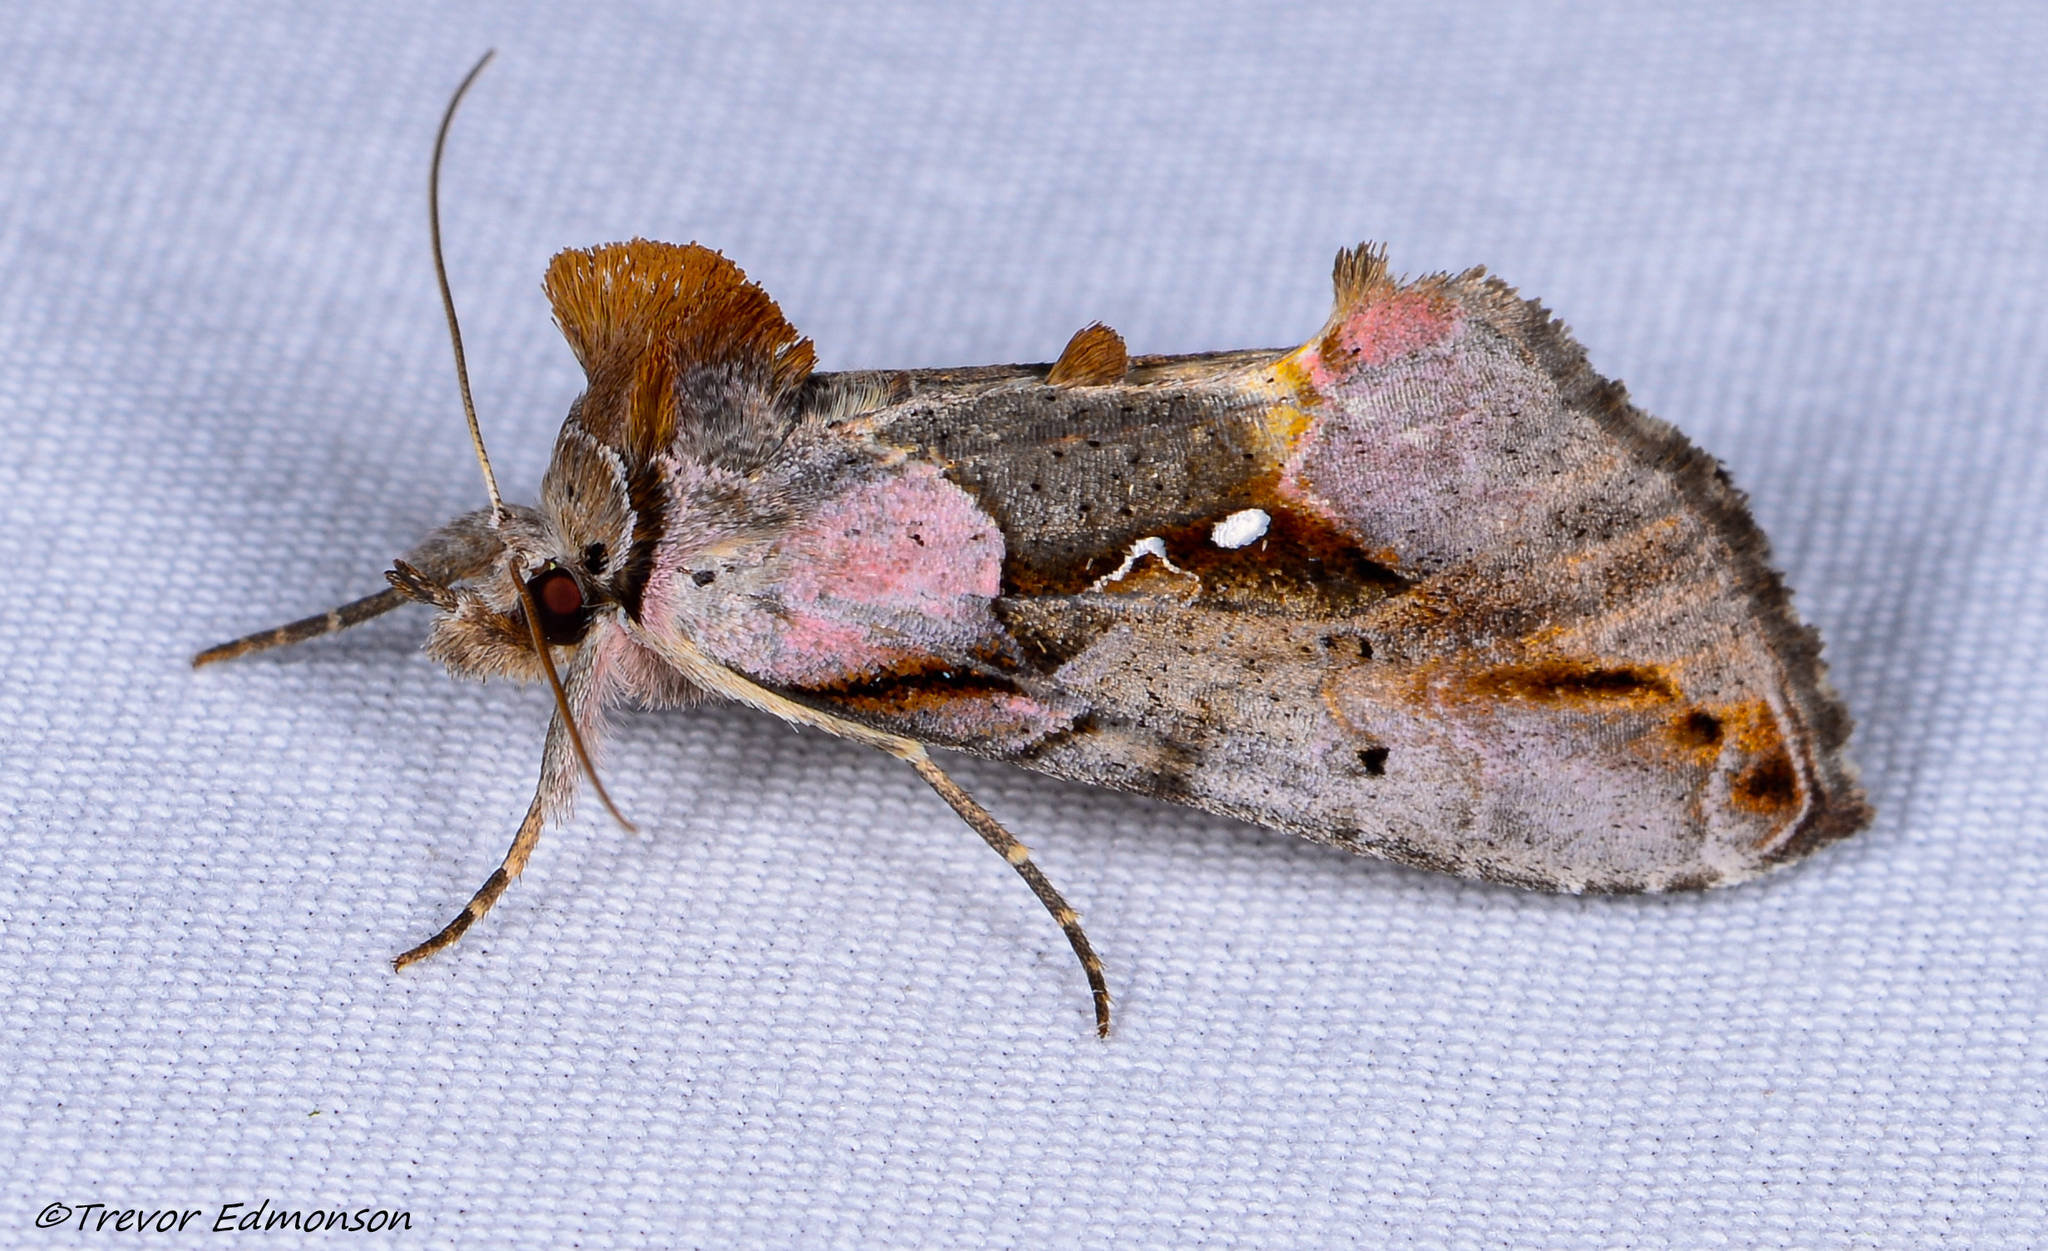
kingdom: Animalia
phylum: Arthropoda
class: Insecta
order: Lepidoptera
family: Noctuidae
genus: Eosphoropteryx
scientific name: Eosphoropteryx thyatyroides
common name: Pinkpatched looper moth
